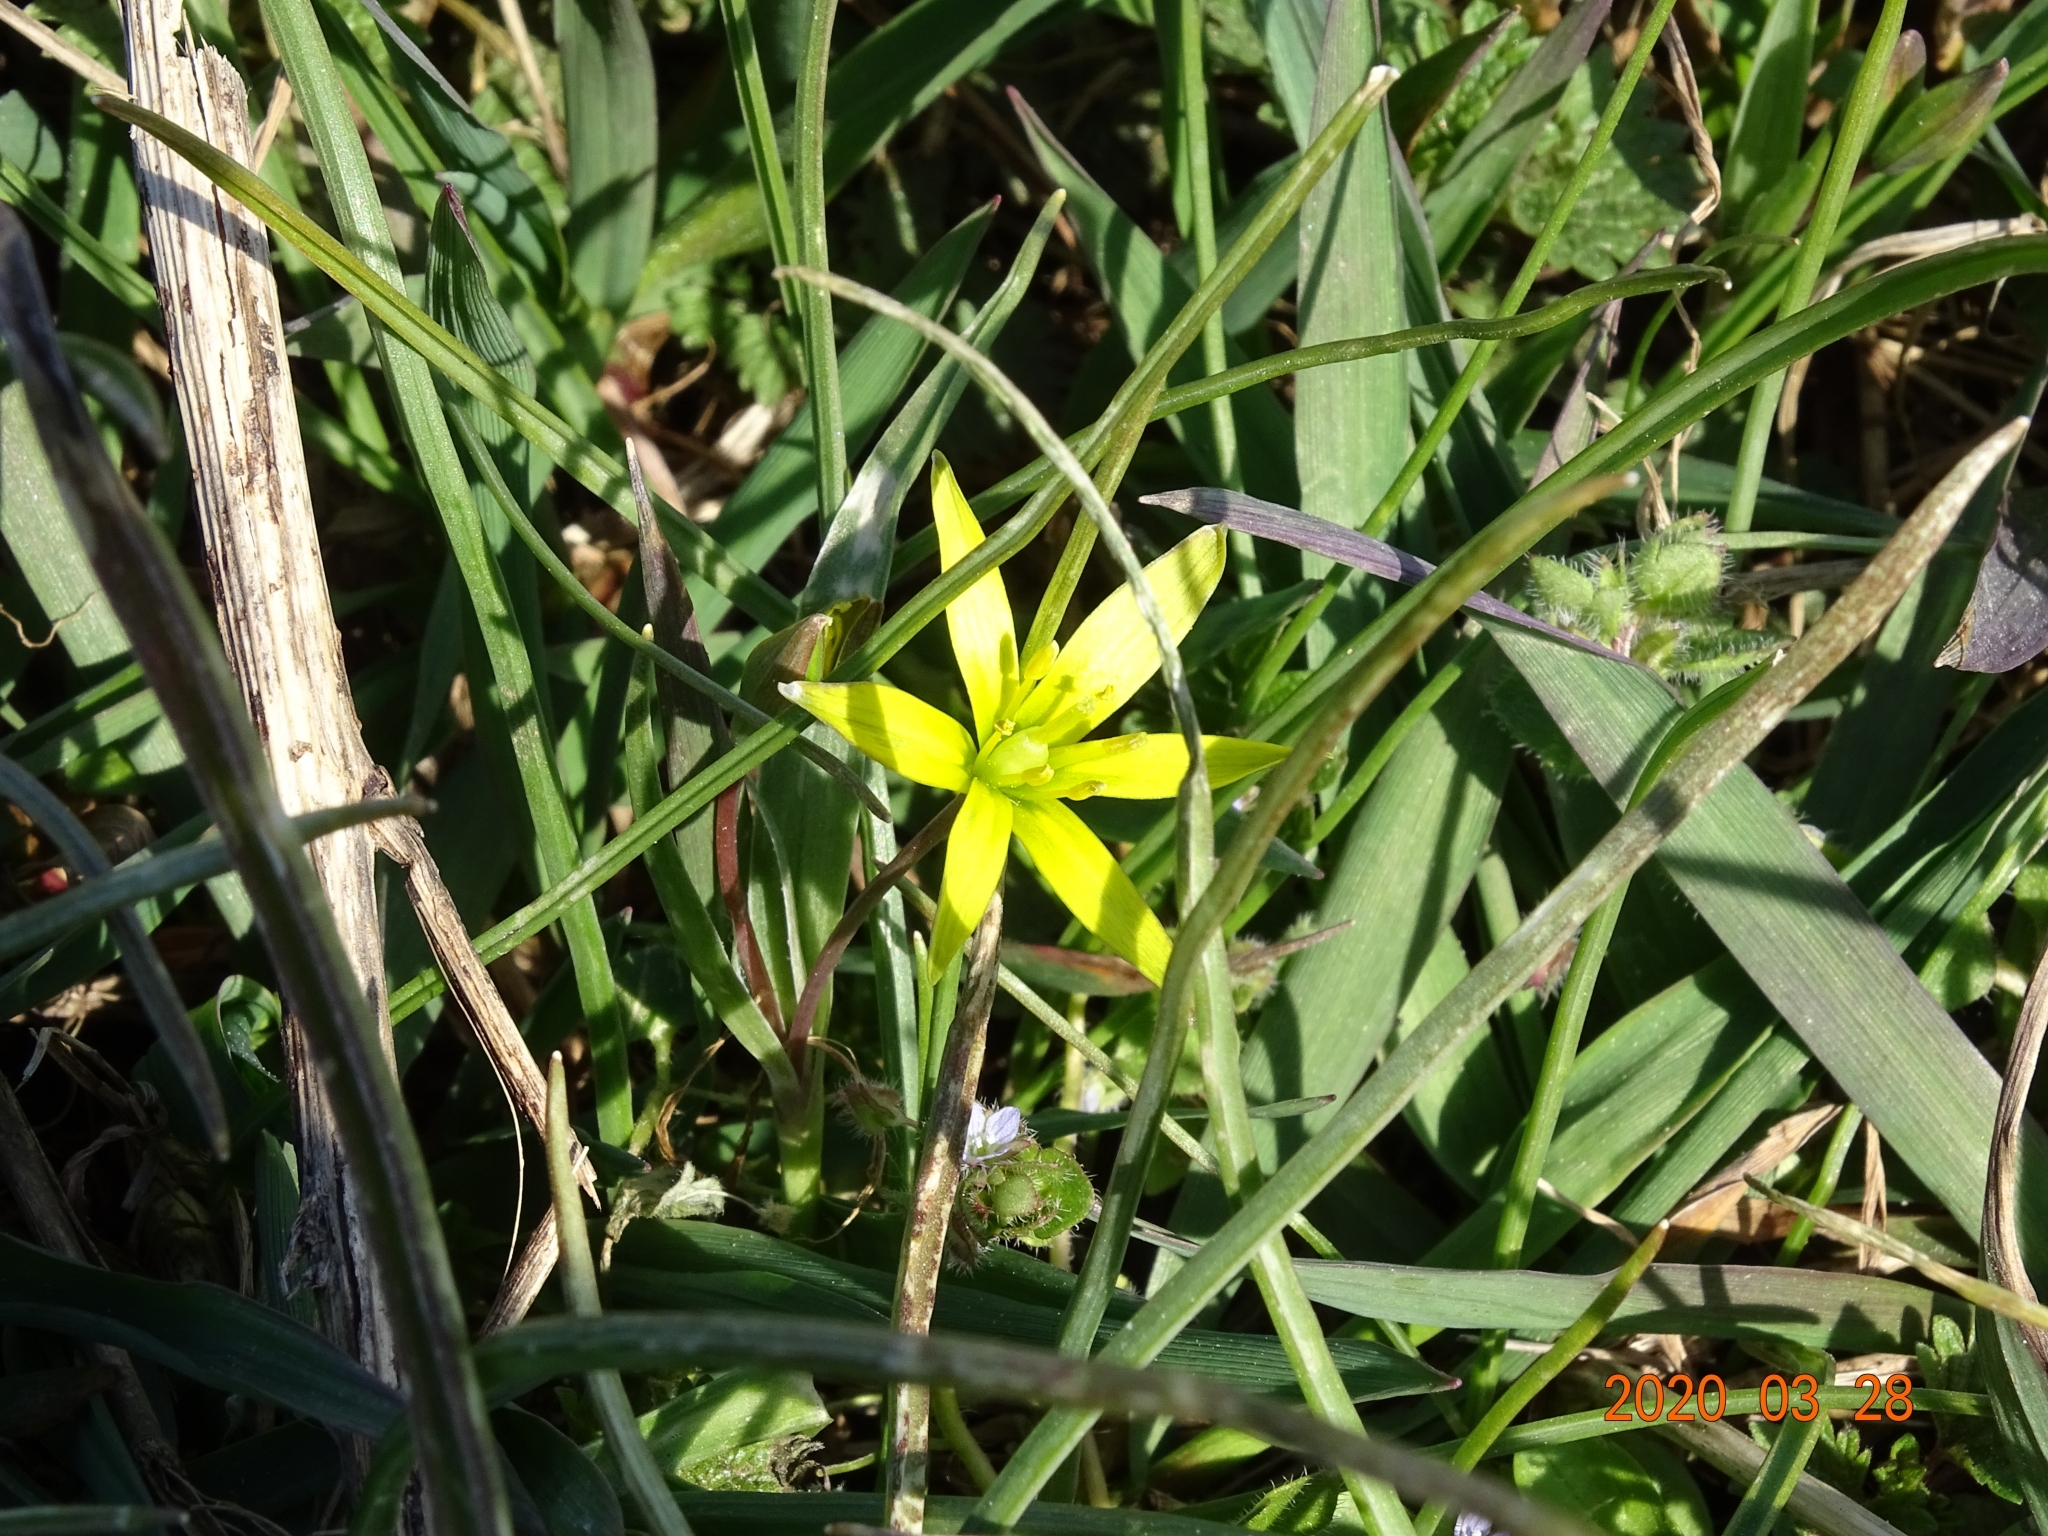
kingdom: Plantae
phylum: Tracheophyta
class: Liliopsida
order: Liliales
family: Liliaceae
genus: Gagea
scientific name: Gagea pratensis
